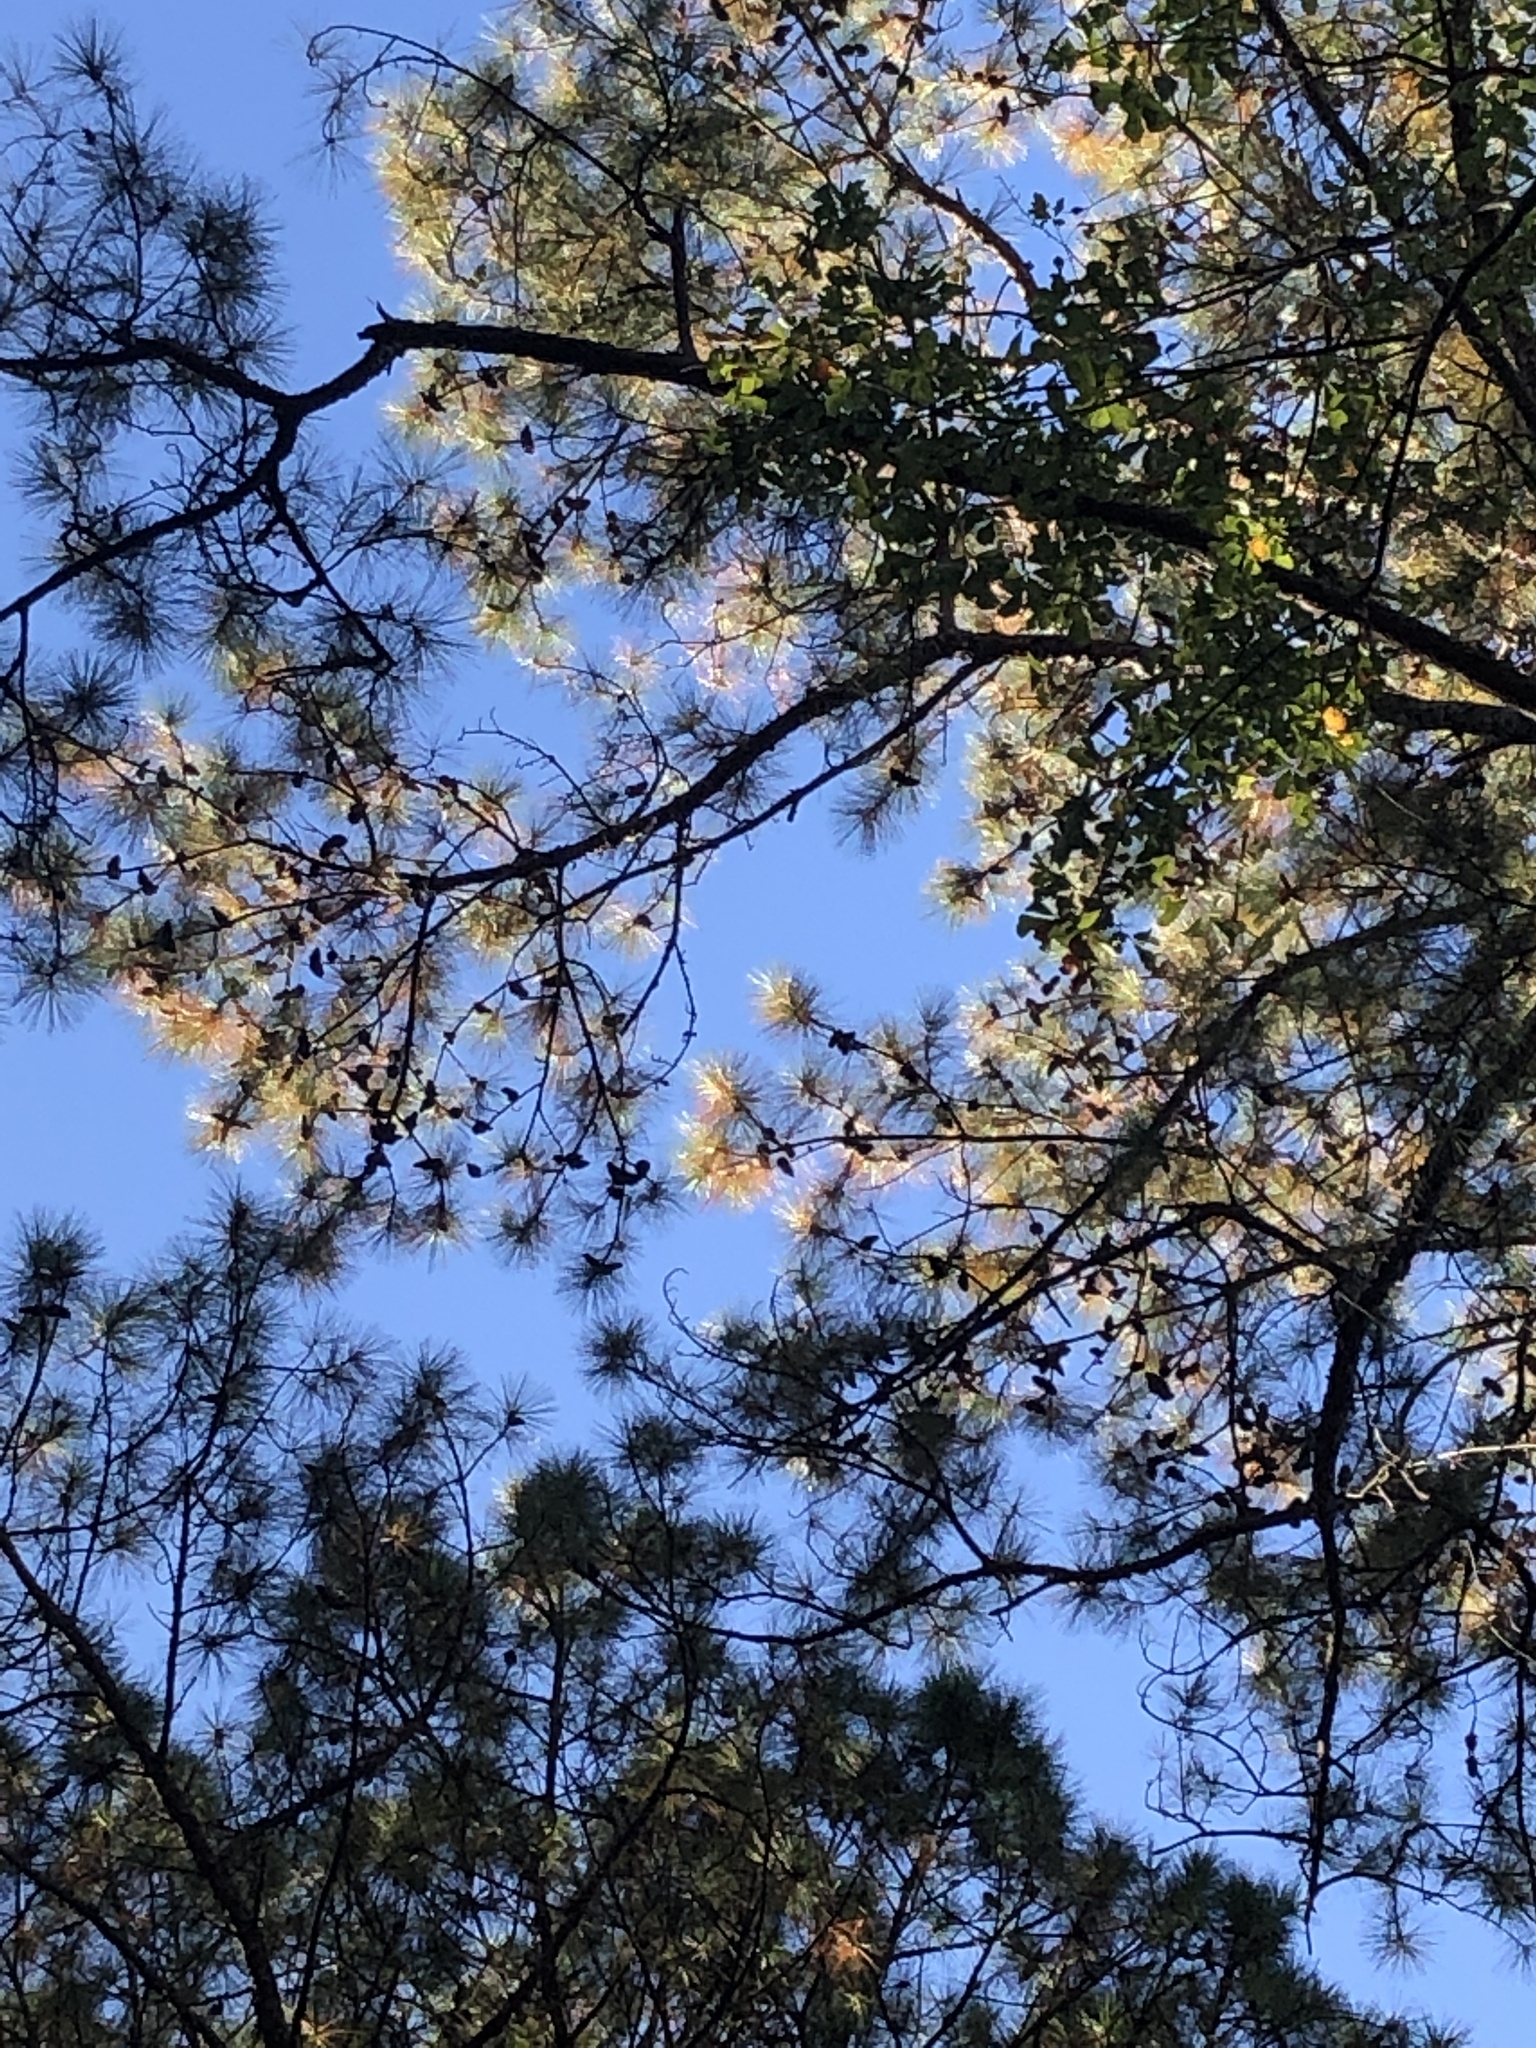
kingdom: Plantae
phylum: Tracheophyta
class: Pinopsida
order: Pinales
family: Pinaceae
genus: Pinus
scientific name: Pinus taeda
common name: Loblolly pine
